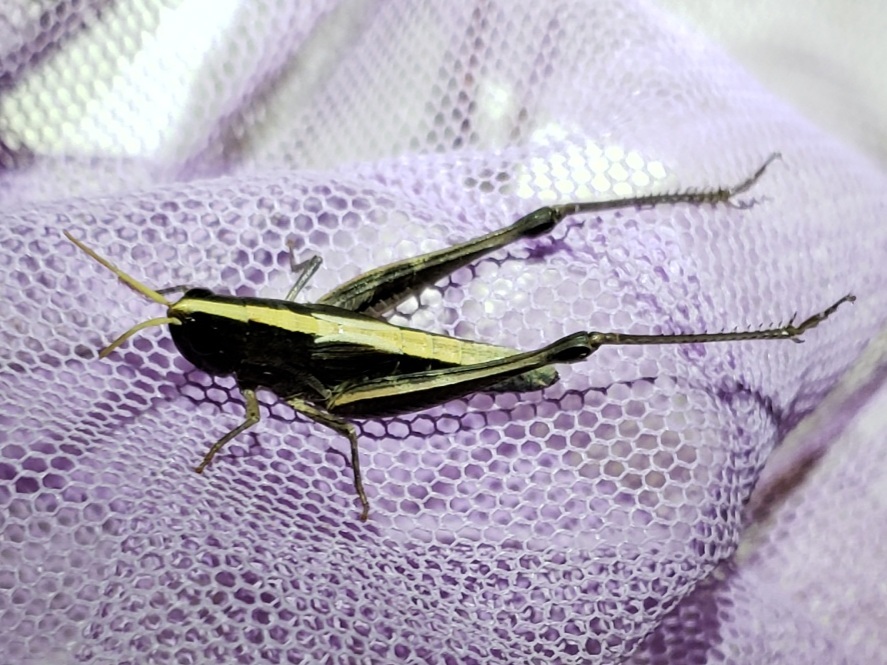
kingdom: Animalia
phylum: Arthropoda
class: Insecta
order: Orthoptera
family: Acrididae
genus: Eritettix
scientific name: Eritettix obscurus
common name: Obscure slant-faced grasshopper
